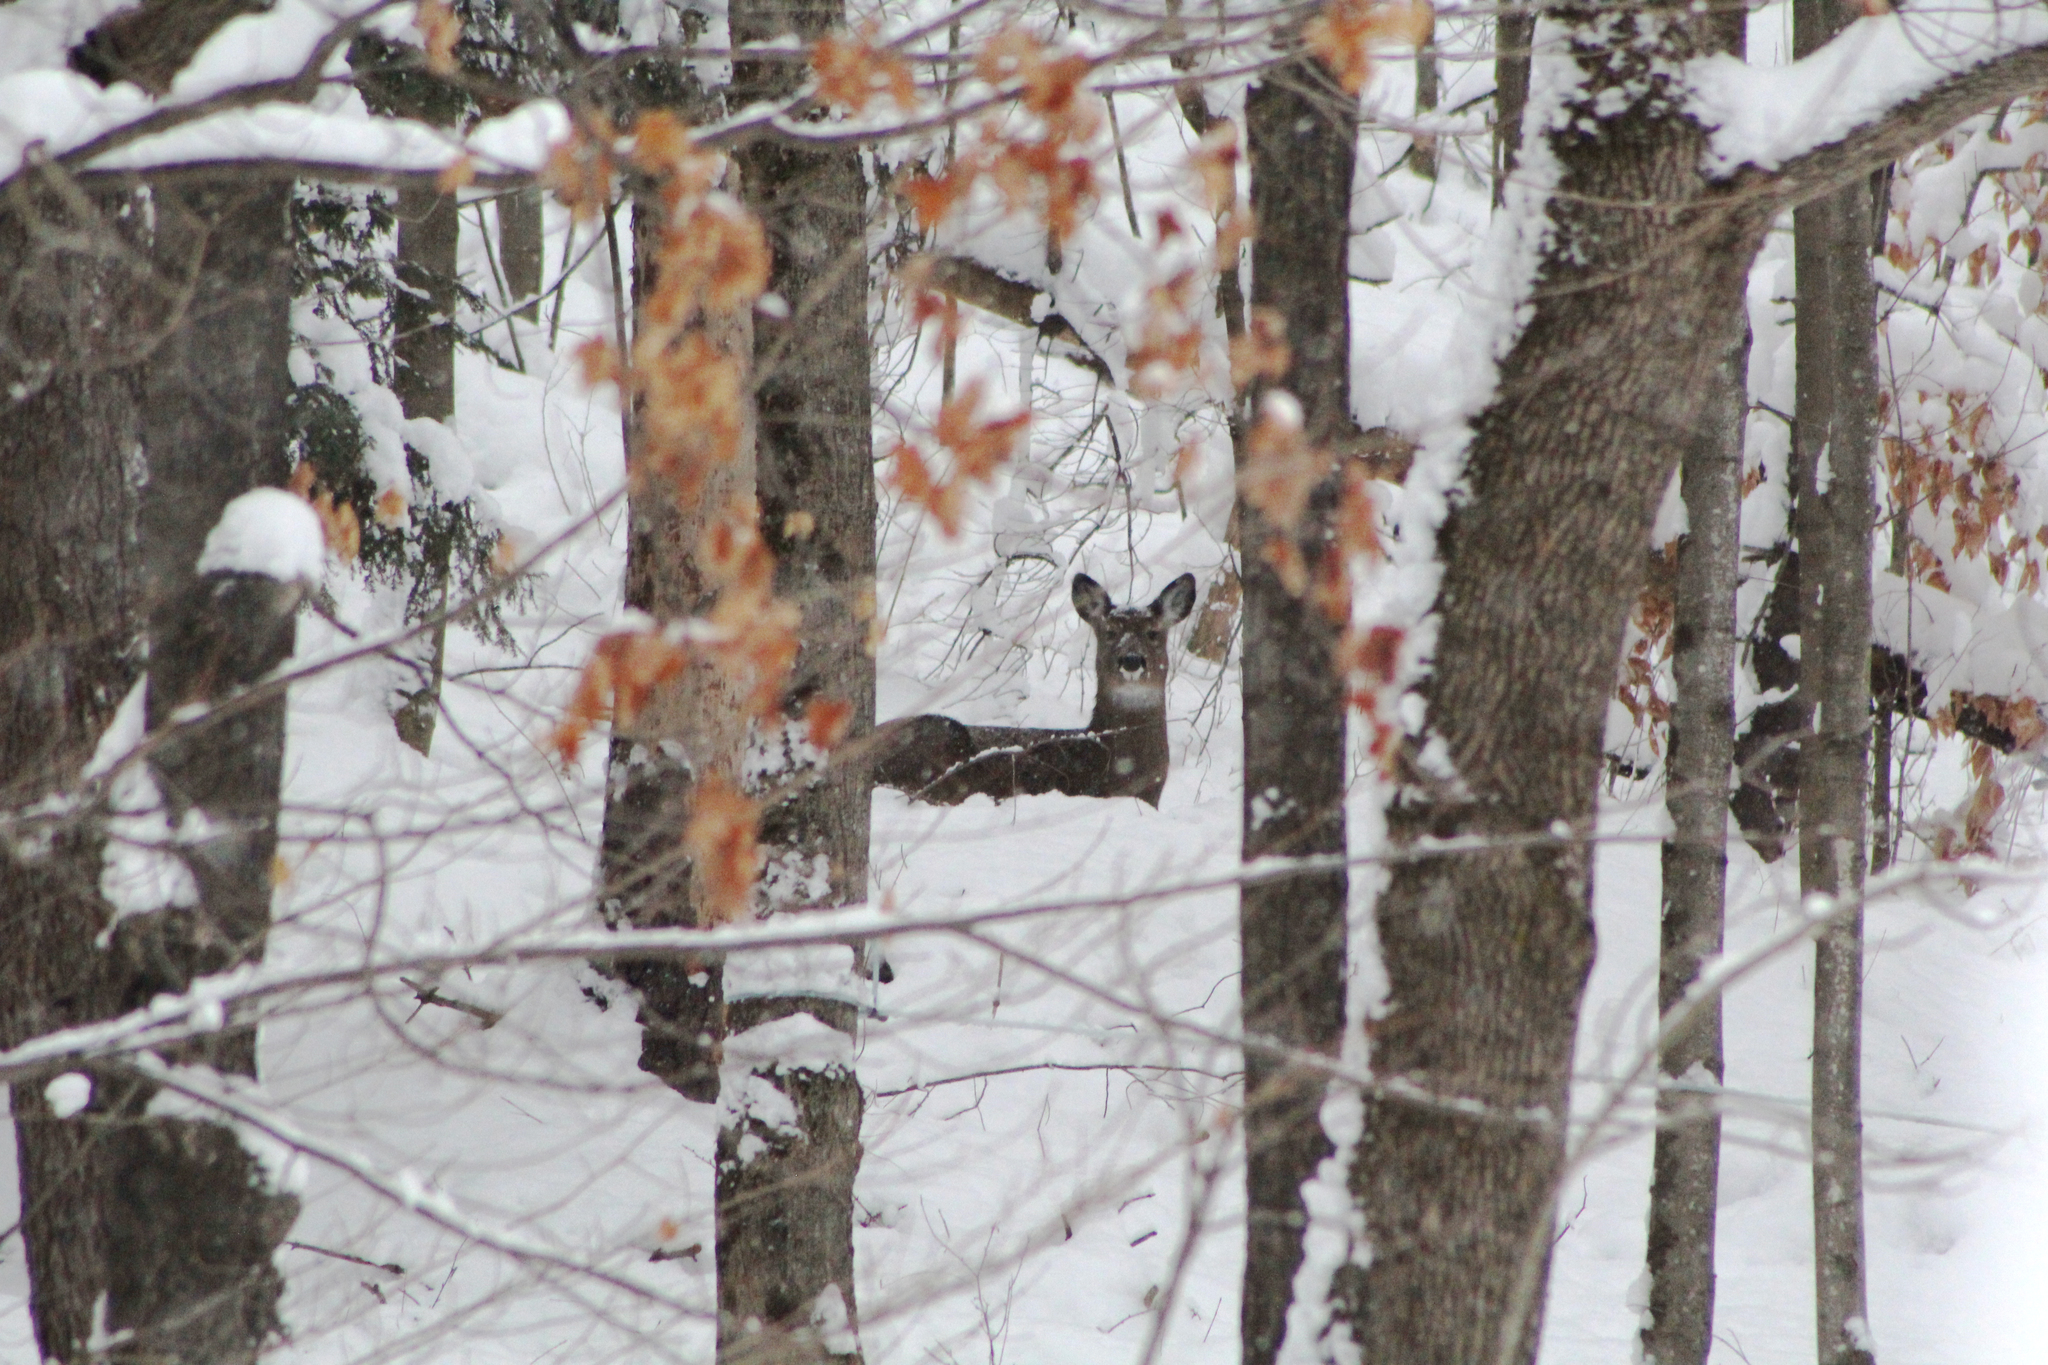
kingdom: Animalia
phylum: Chordata
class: Mammalia
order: Artiodactyla
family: Cervidae
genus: Odocoileus
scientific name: Odocoileus virginianus
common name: White-tailed deer
